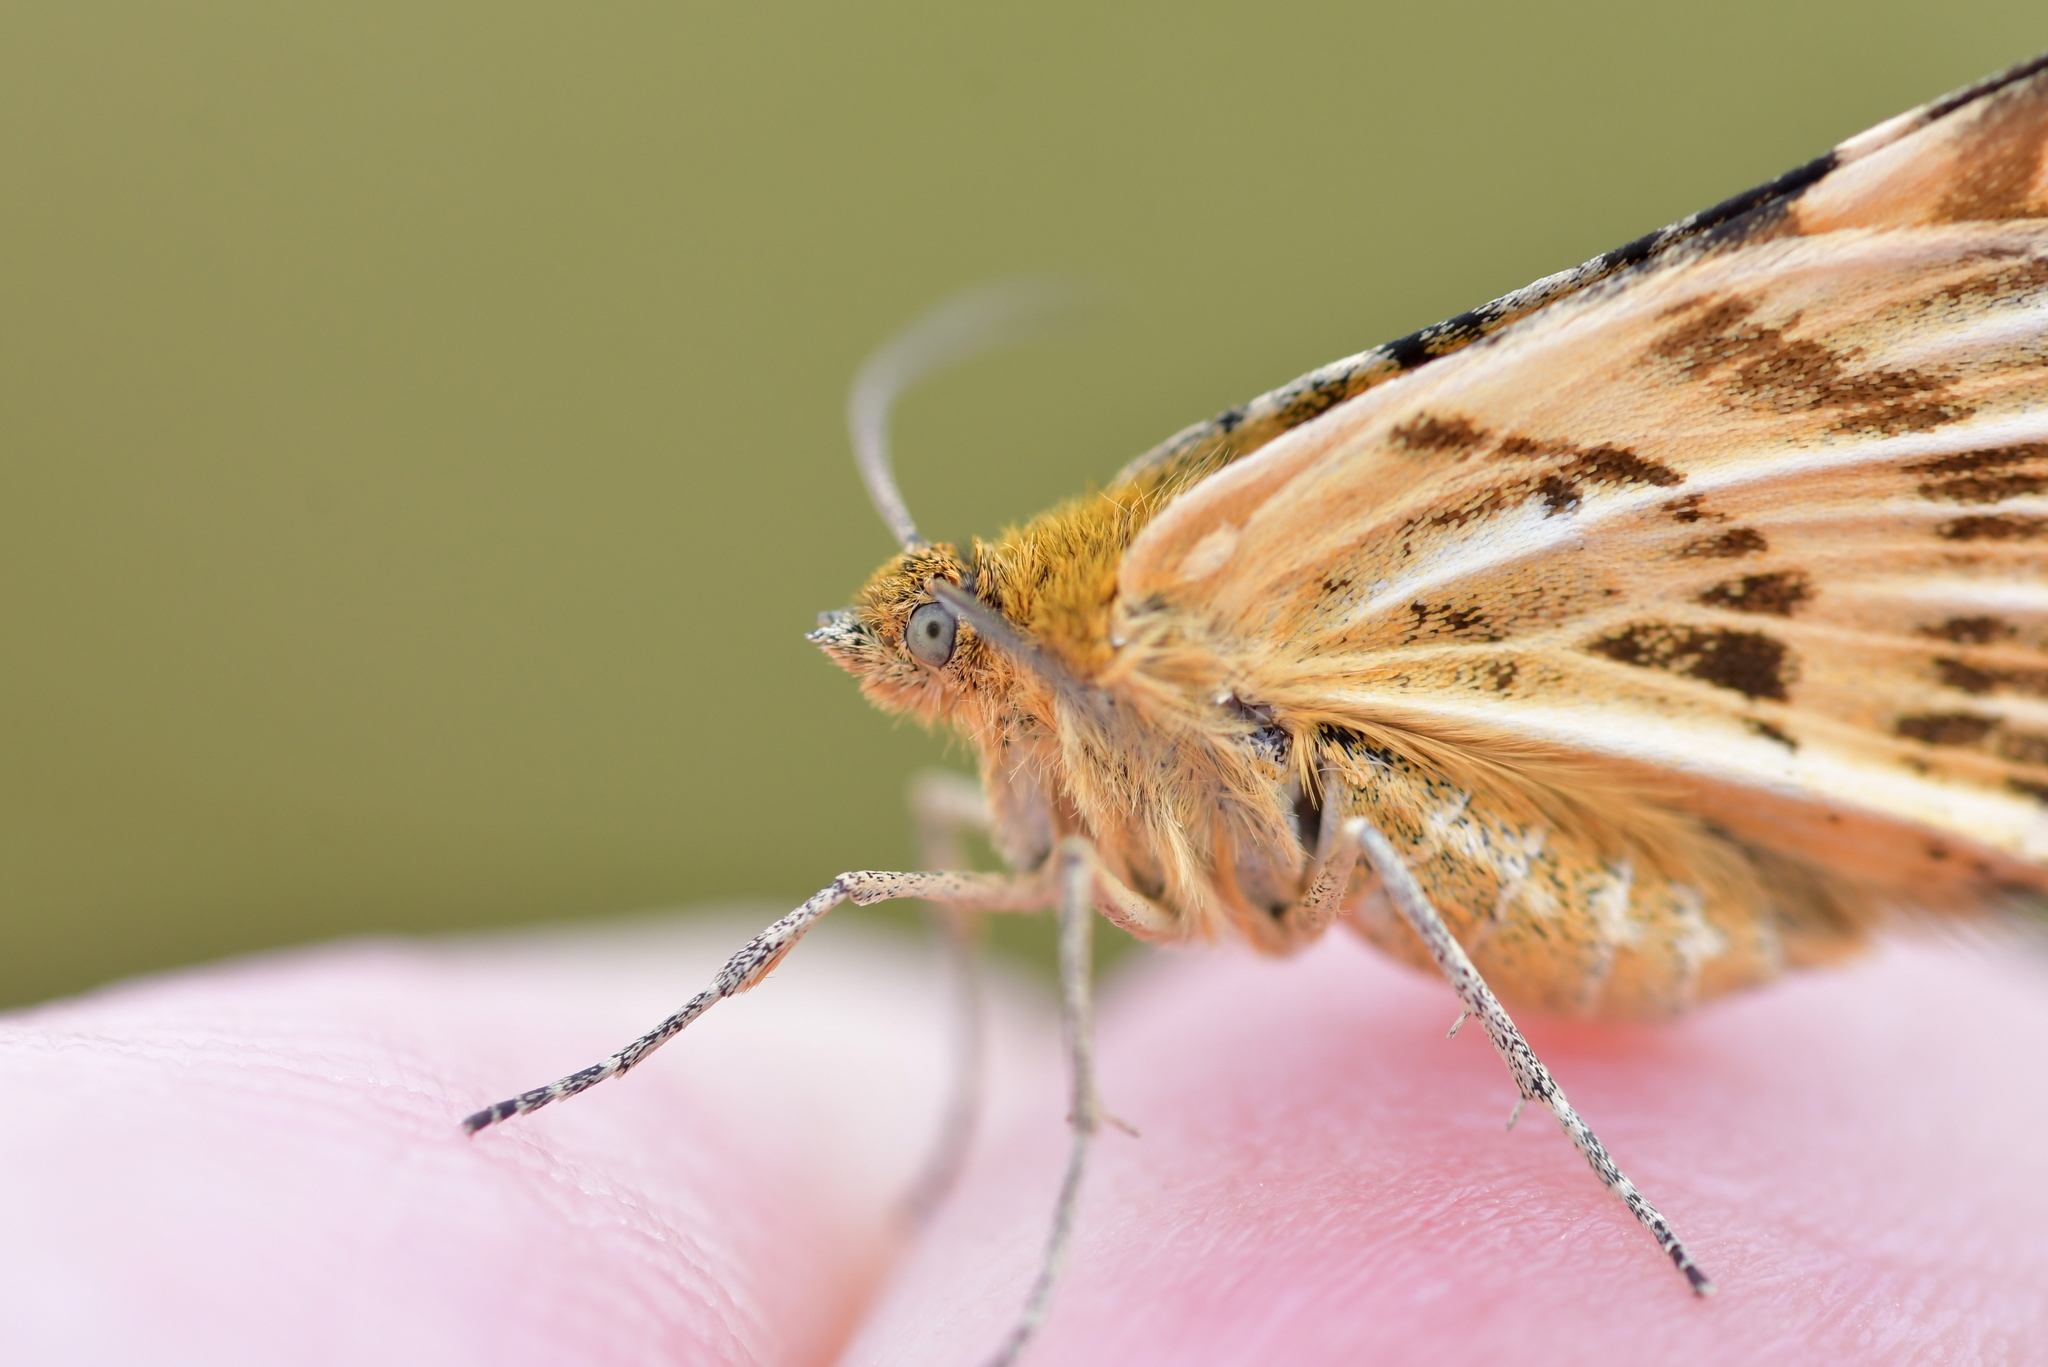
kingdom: Animalia
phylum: Arthropoda
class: Insecta
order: Lepidoptera
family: Geometridae
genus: Dasyuris
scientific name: Dasyuris partheniata
